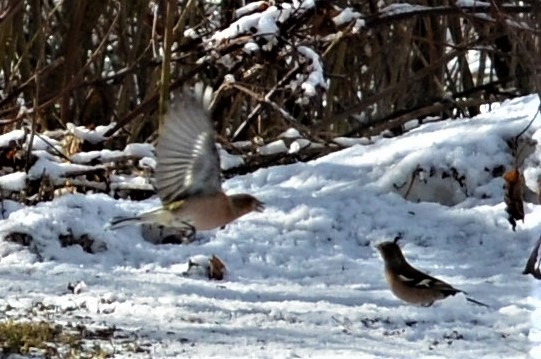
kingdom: Animalia
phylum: Chordata
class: Aves
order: Passeriformes
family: Fringillidae
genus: Fringilla
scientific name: Fringilla coelebs
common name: Common chaffinch
